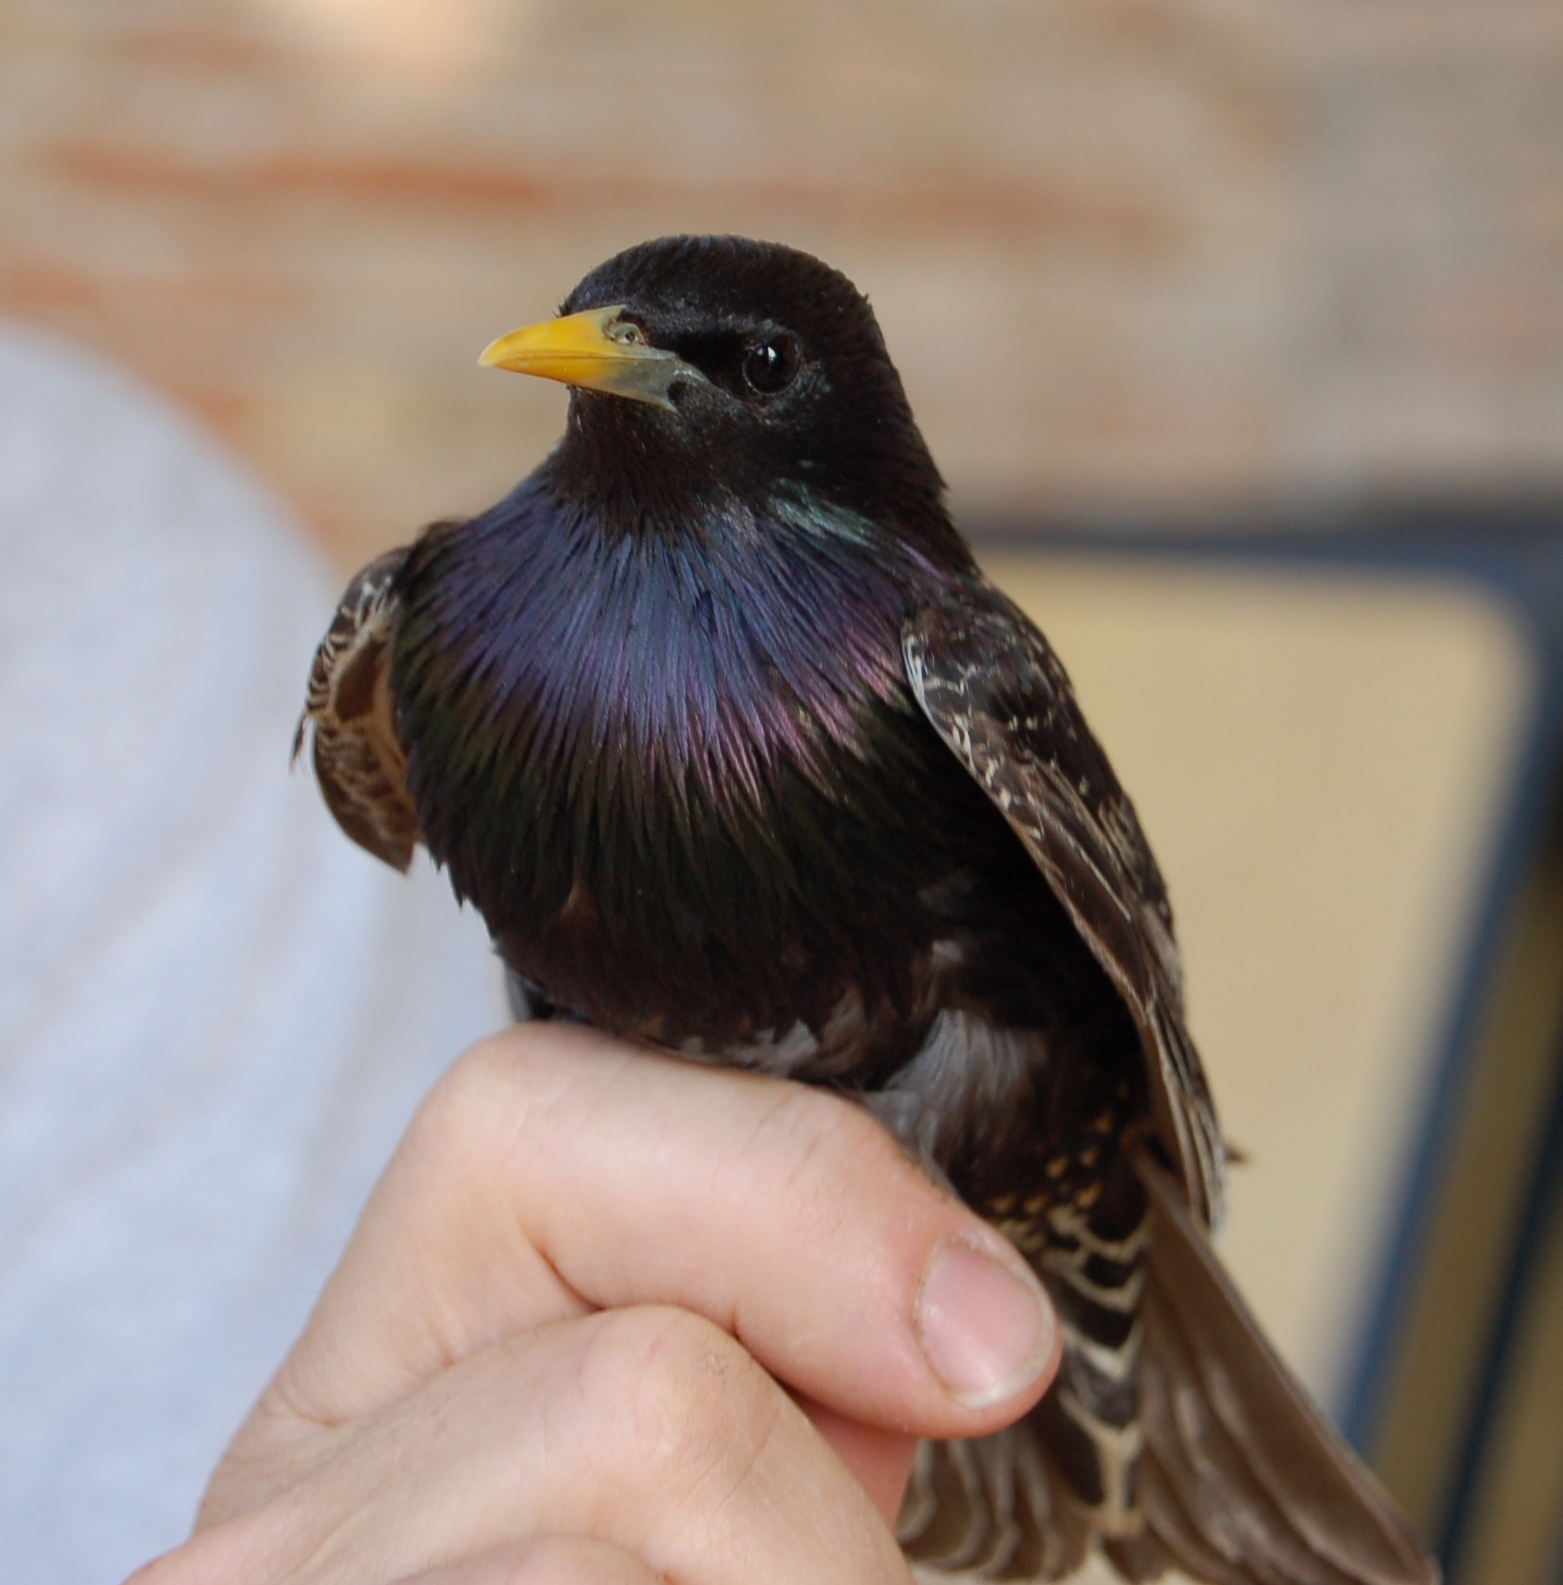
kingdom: Animalia
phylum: Chordata
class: Aves
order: Passeriformes
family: Sturnidae
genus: Sturnus
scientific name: Sturnus vulgaris
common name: Common starling
